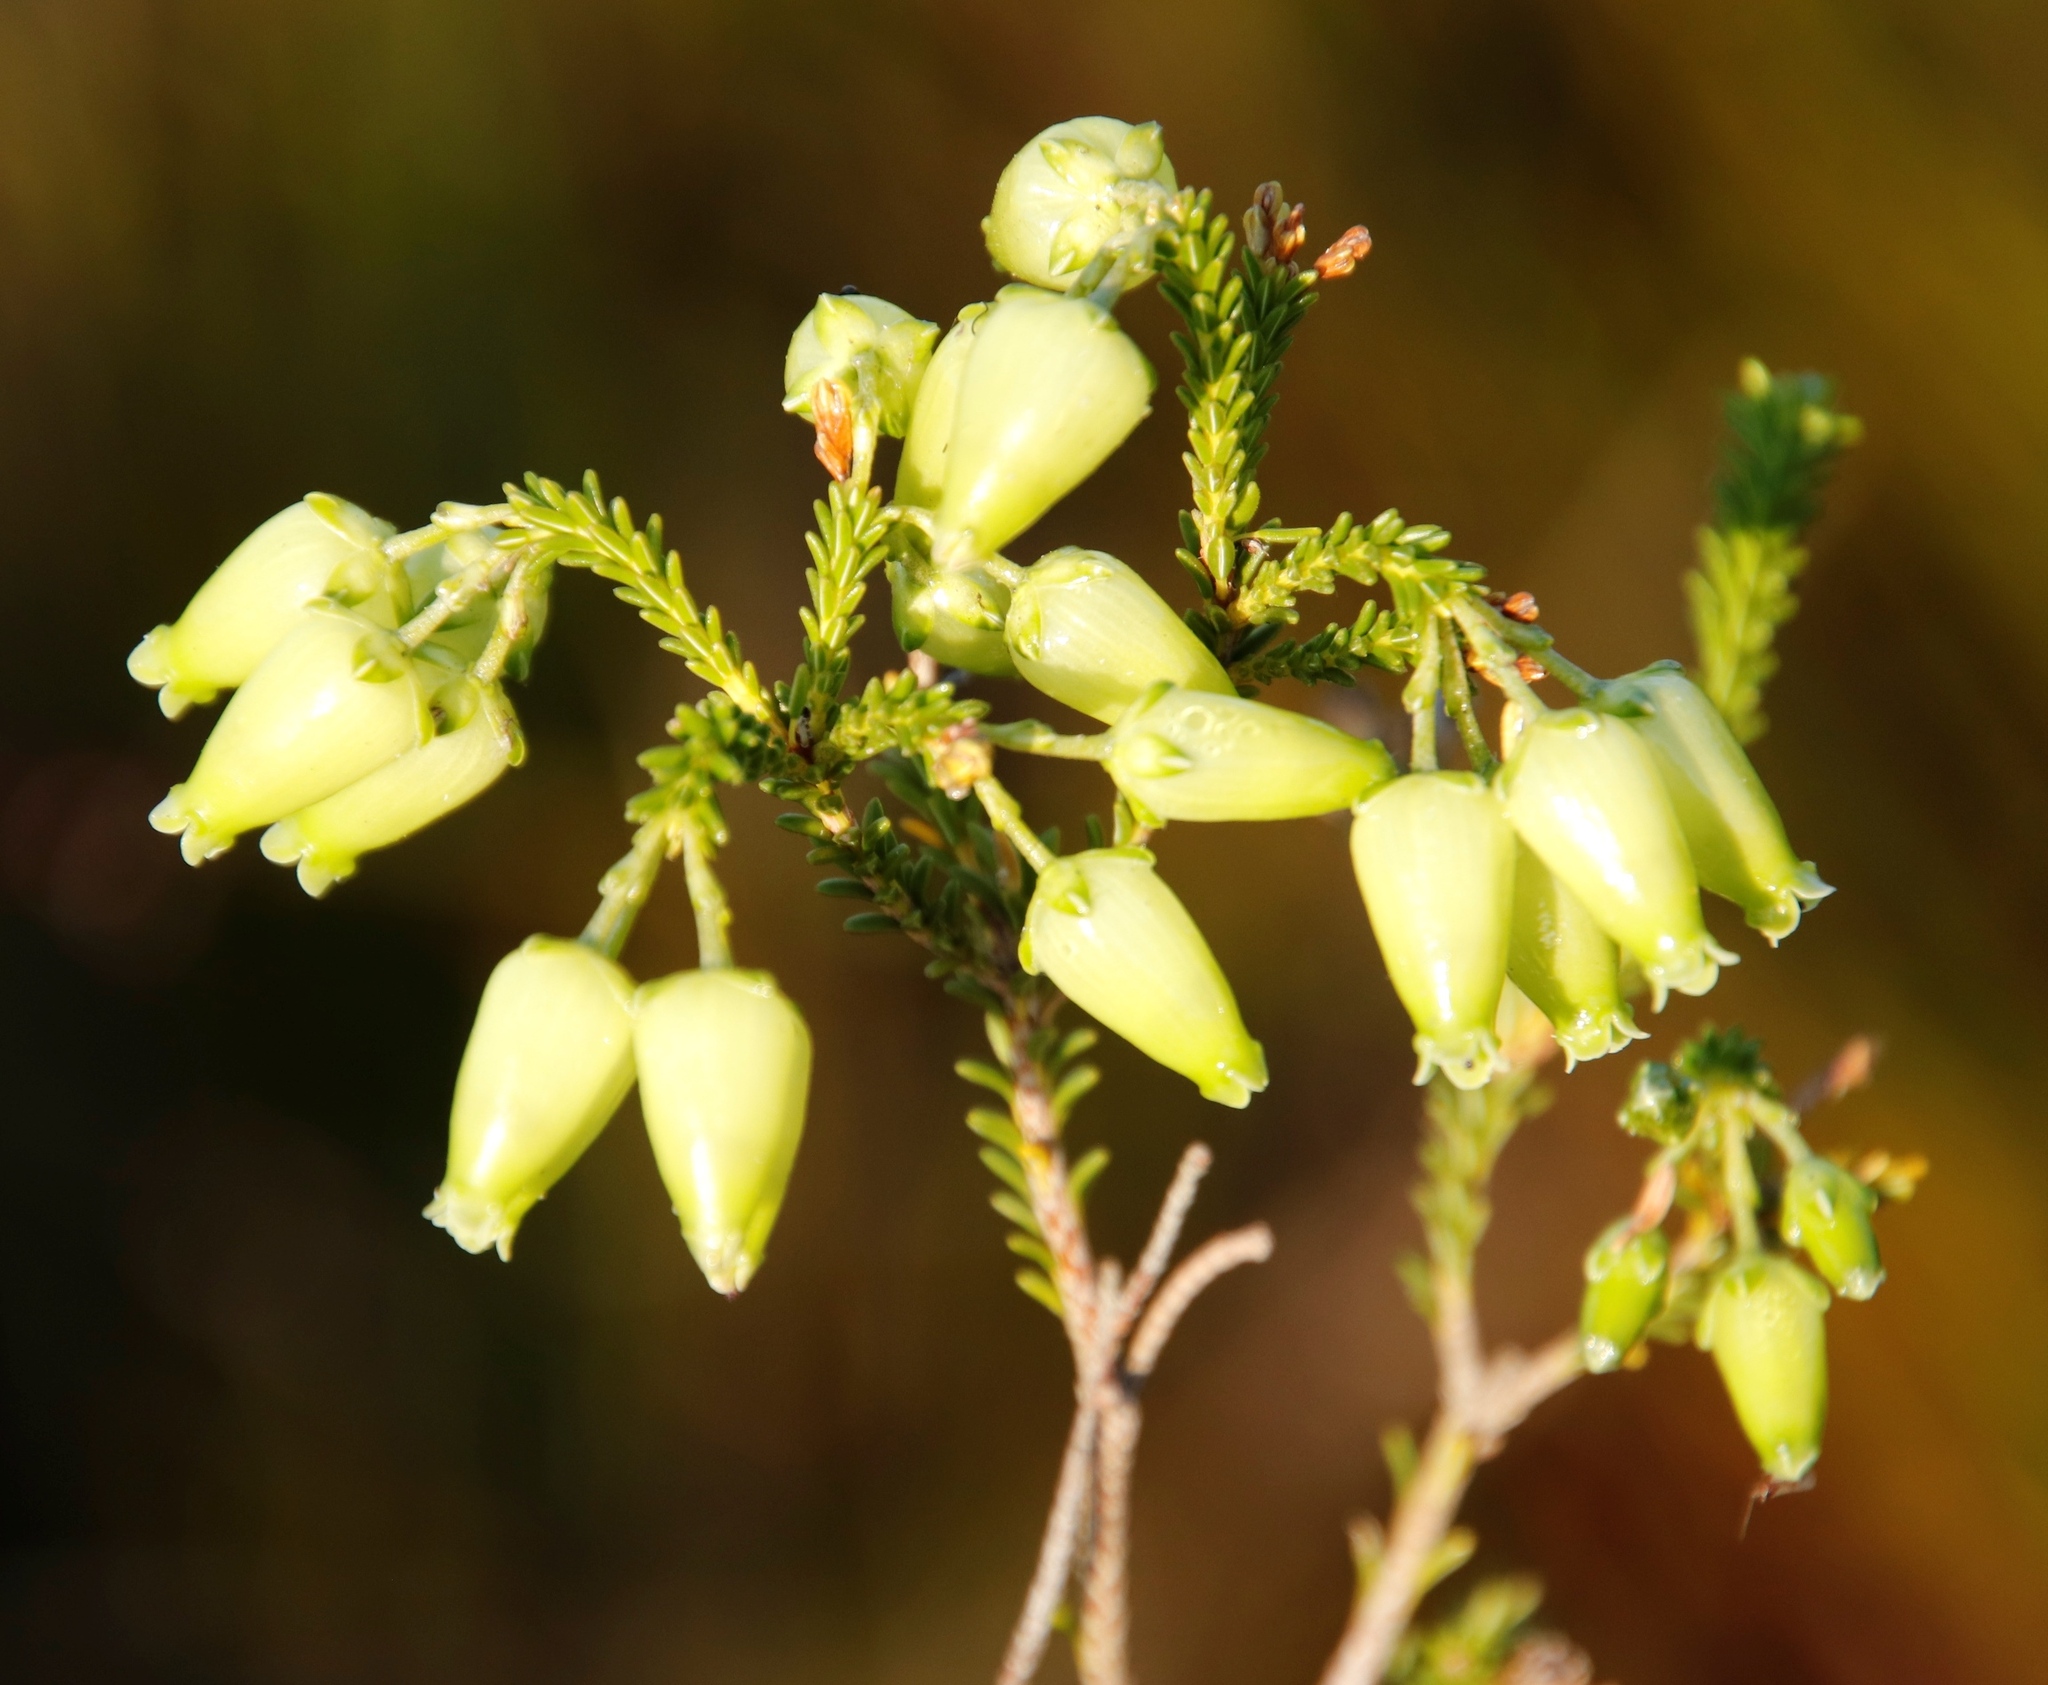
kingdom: Plantae
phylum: Tracheophyta
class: Magnoliopsida
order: Ericales
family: Ericaceae
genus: Erica
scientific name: Erica urna-viridis
